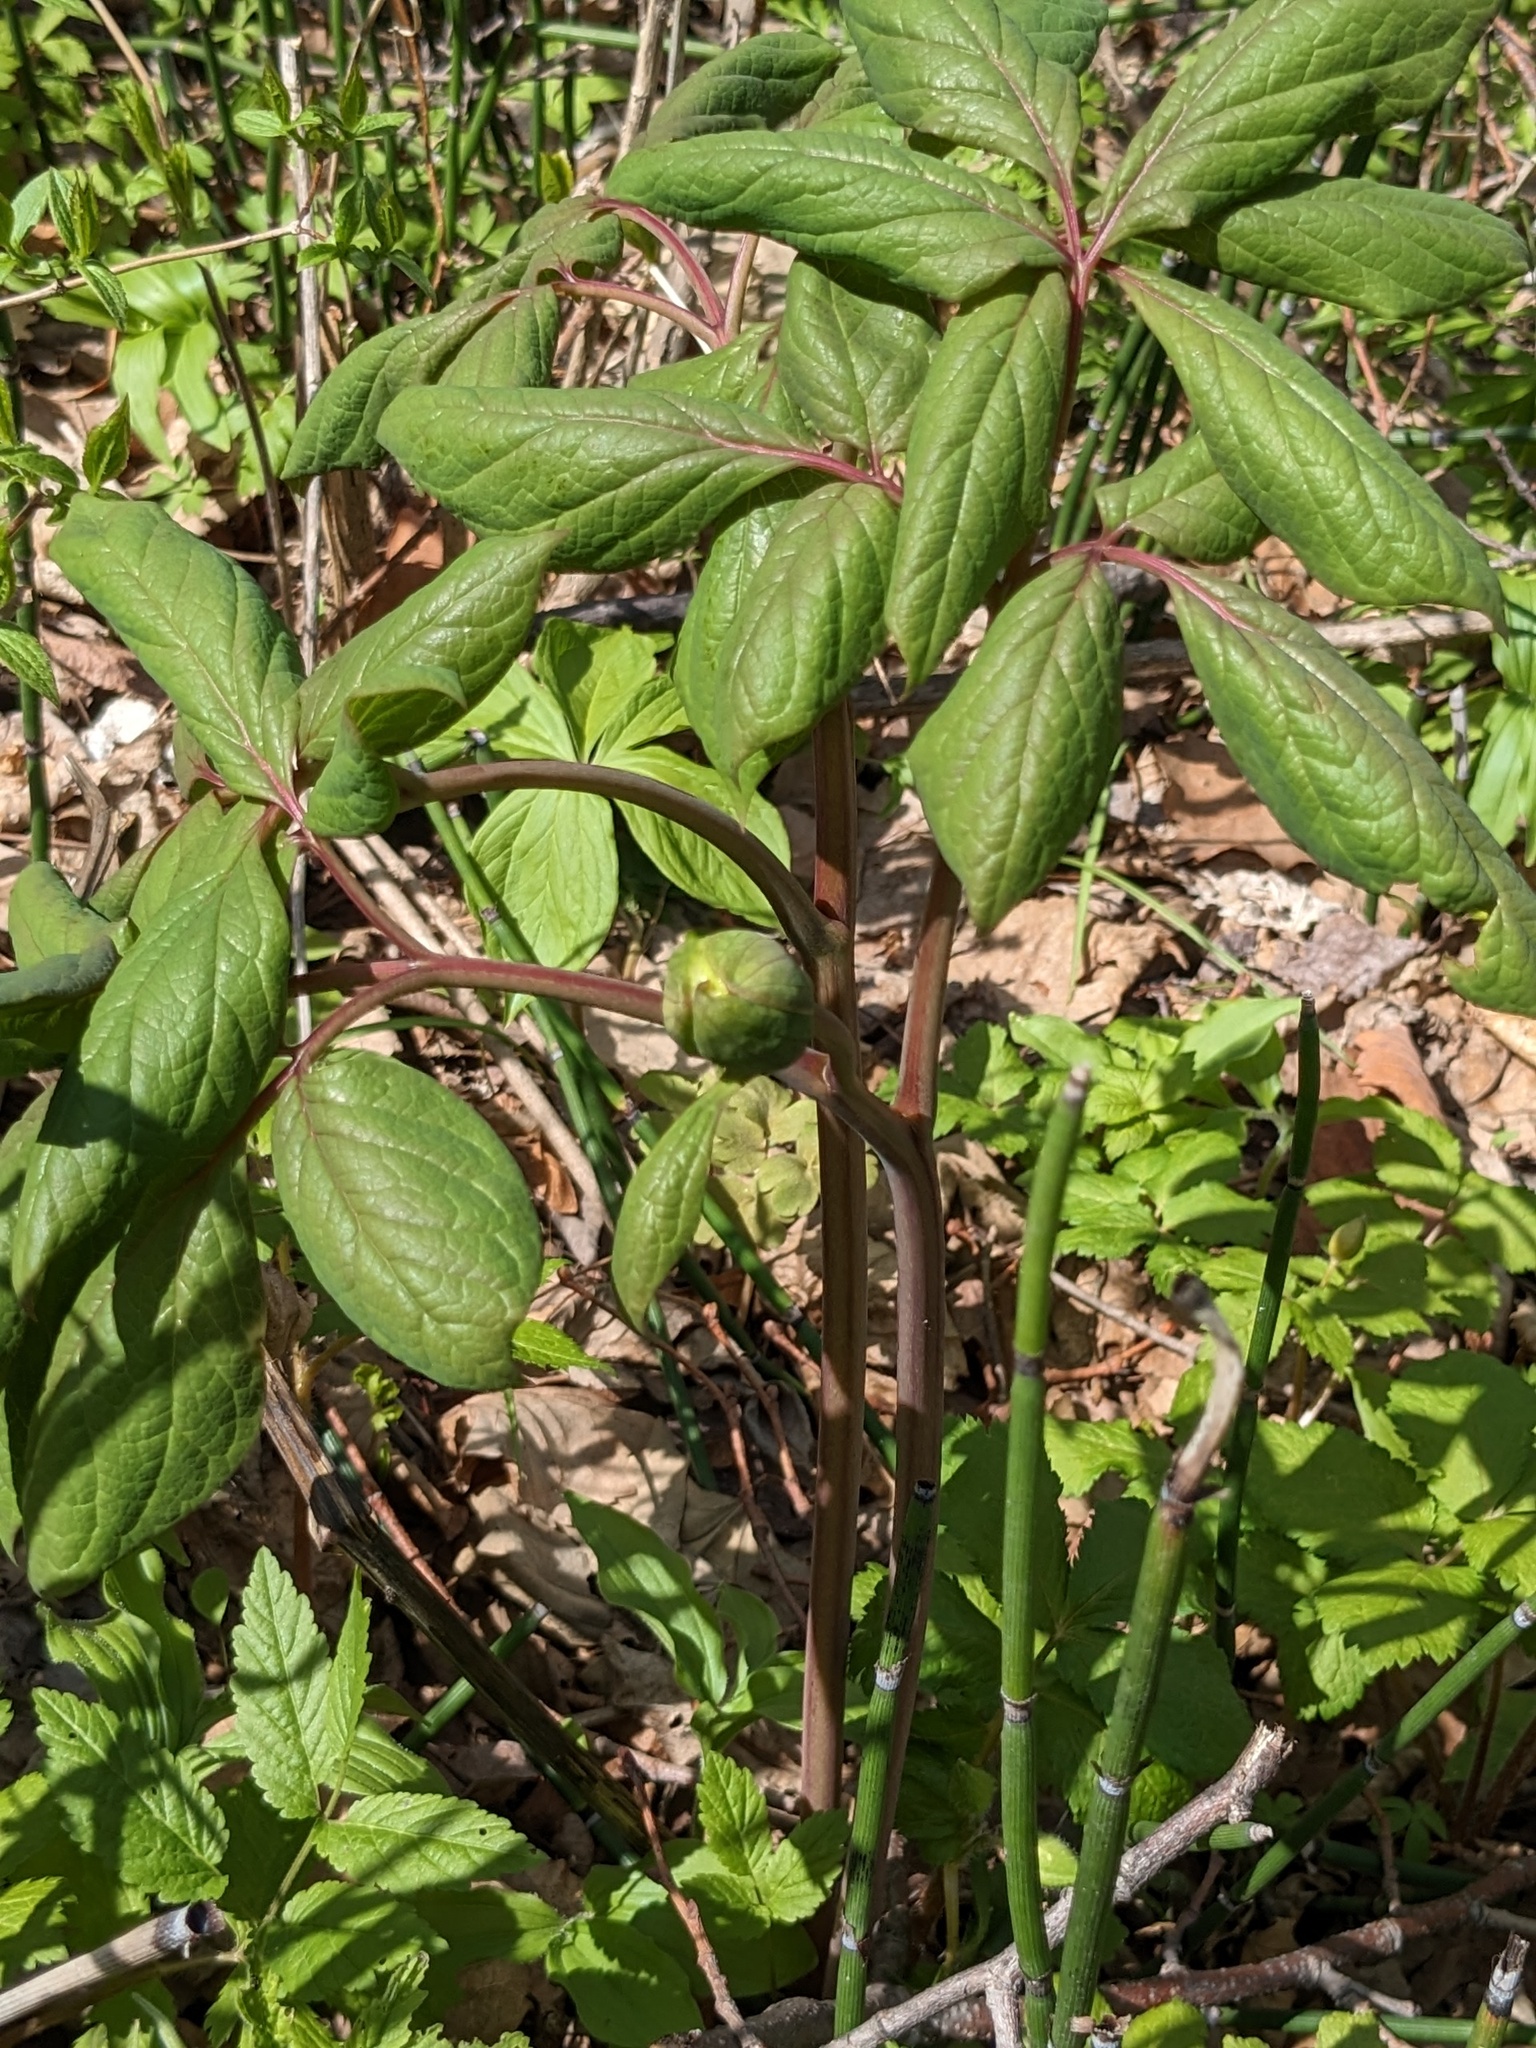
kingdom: Plantae
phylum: Tracheophyta
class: Magnoliopsida
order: Saxifragales
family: Paeoniaceae
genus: Paeonia
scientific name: Paeonia obovata
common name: Chinese peony
